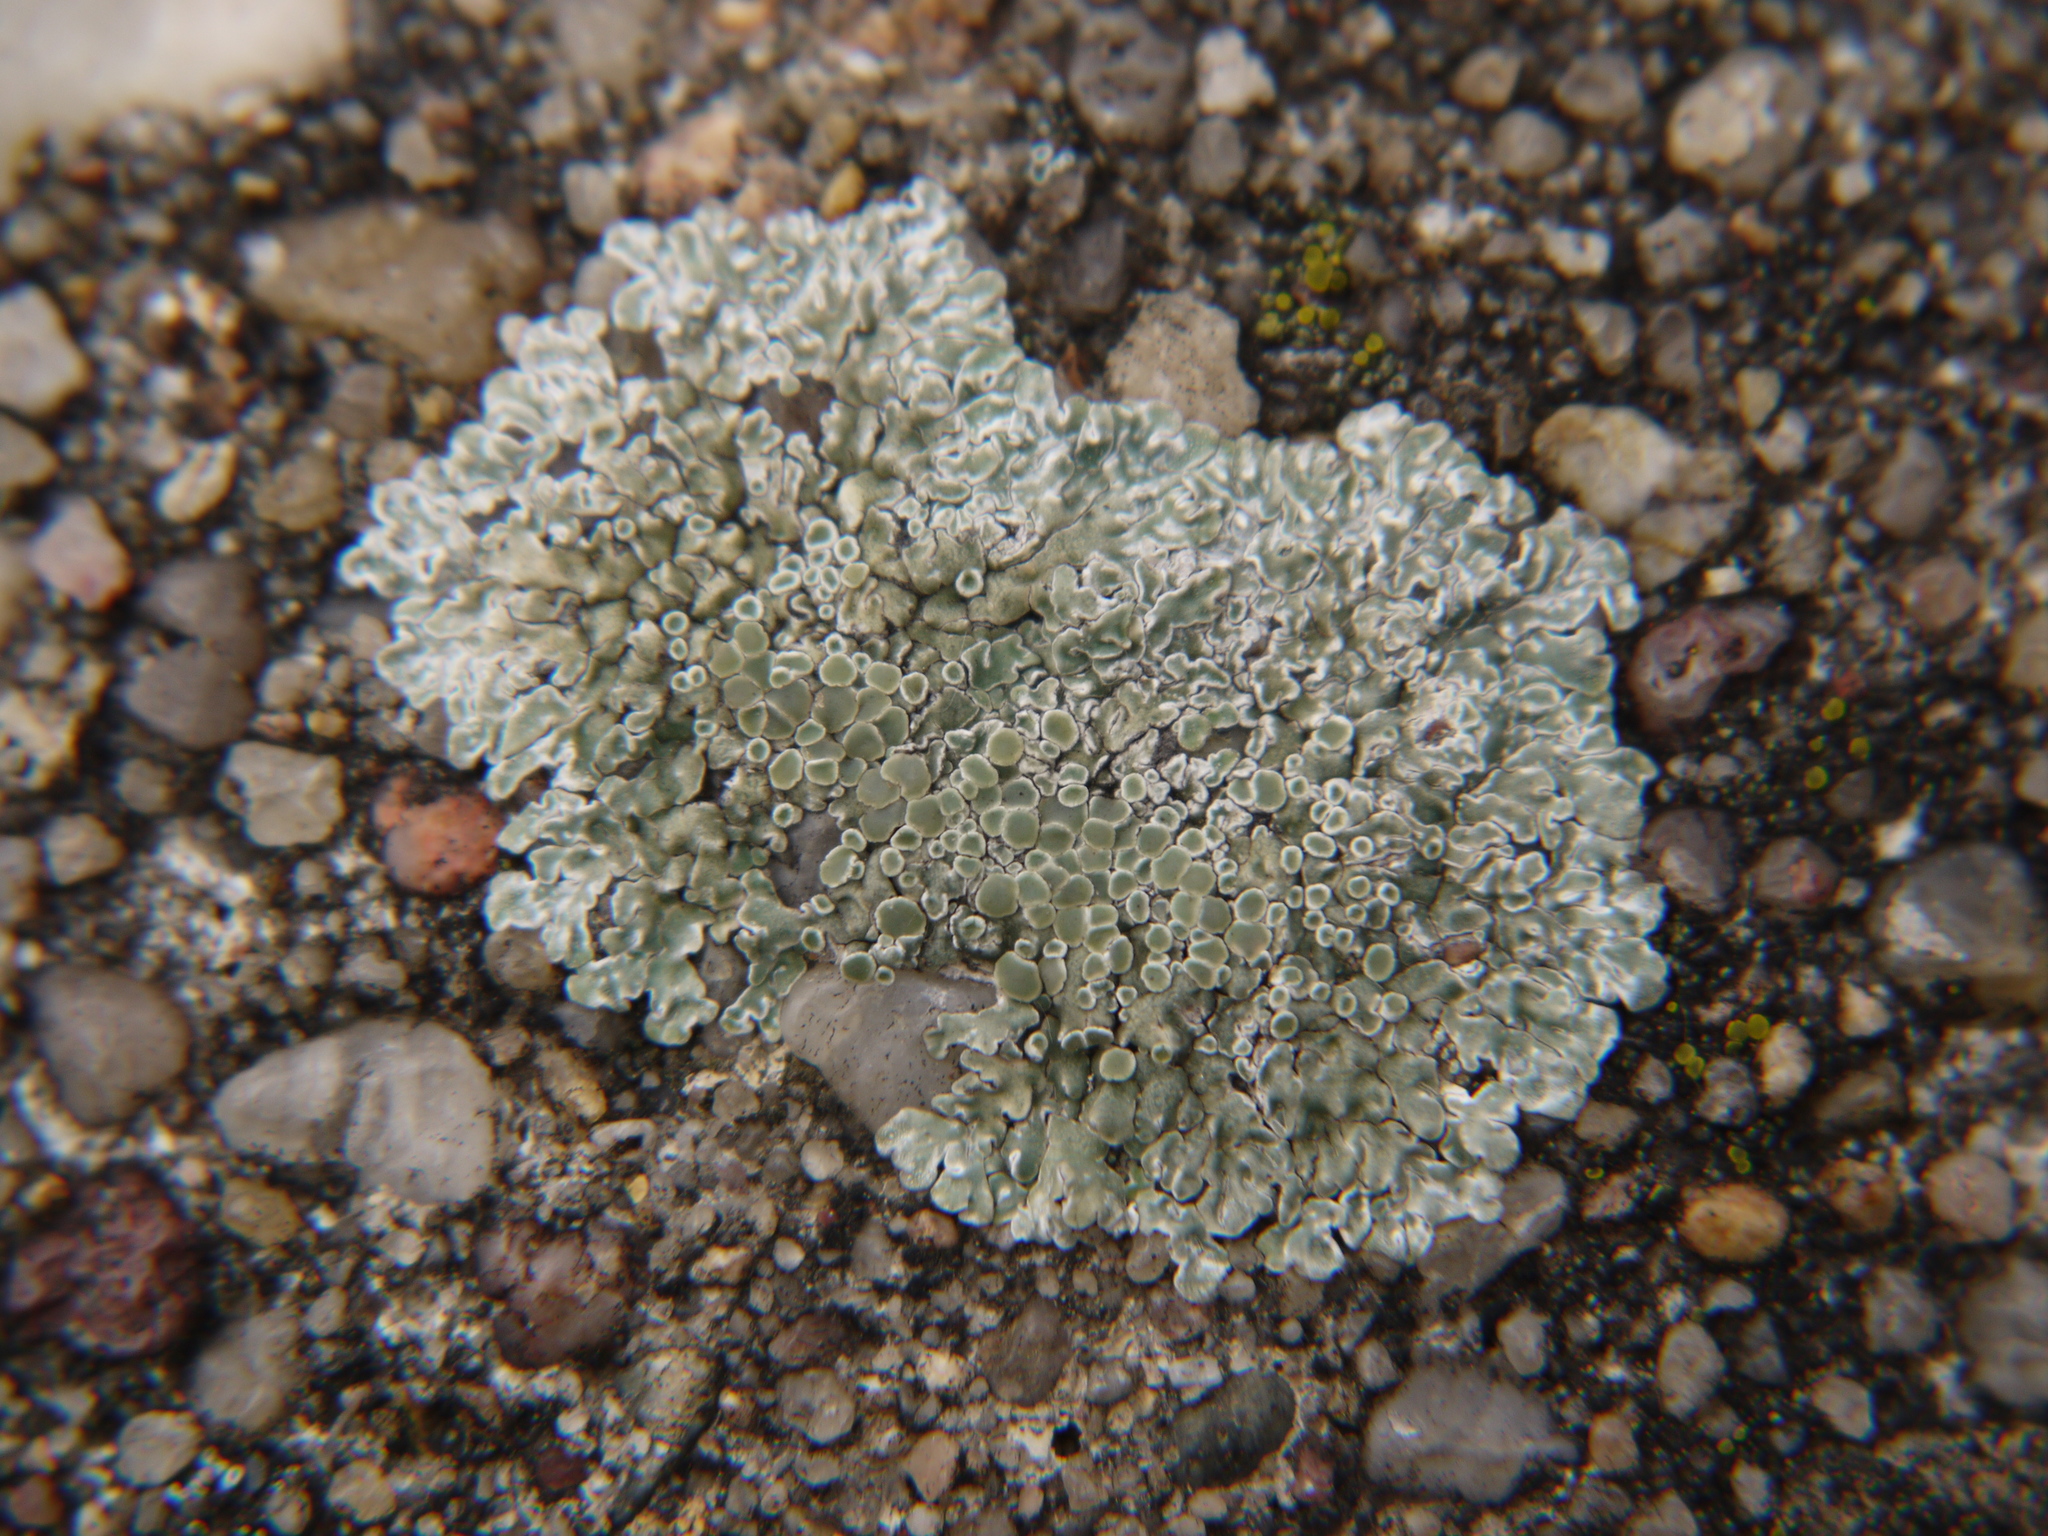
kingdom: Fungi
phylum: Ascomycota
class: Lecanoromycetes
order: Lecanorales
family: Lecanoraceae
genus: Protoparmeliopsis
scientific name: Protoparmeliopsis muralis
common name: Stonewall rim lichen
